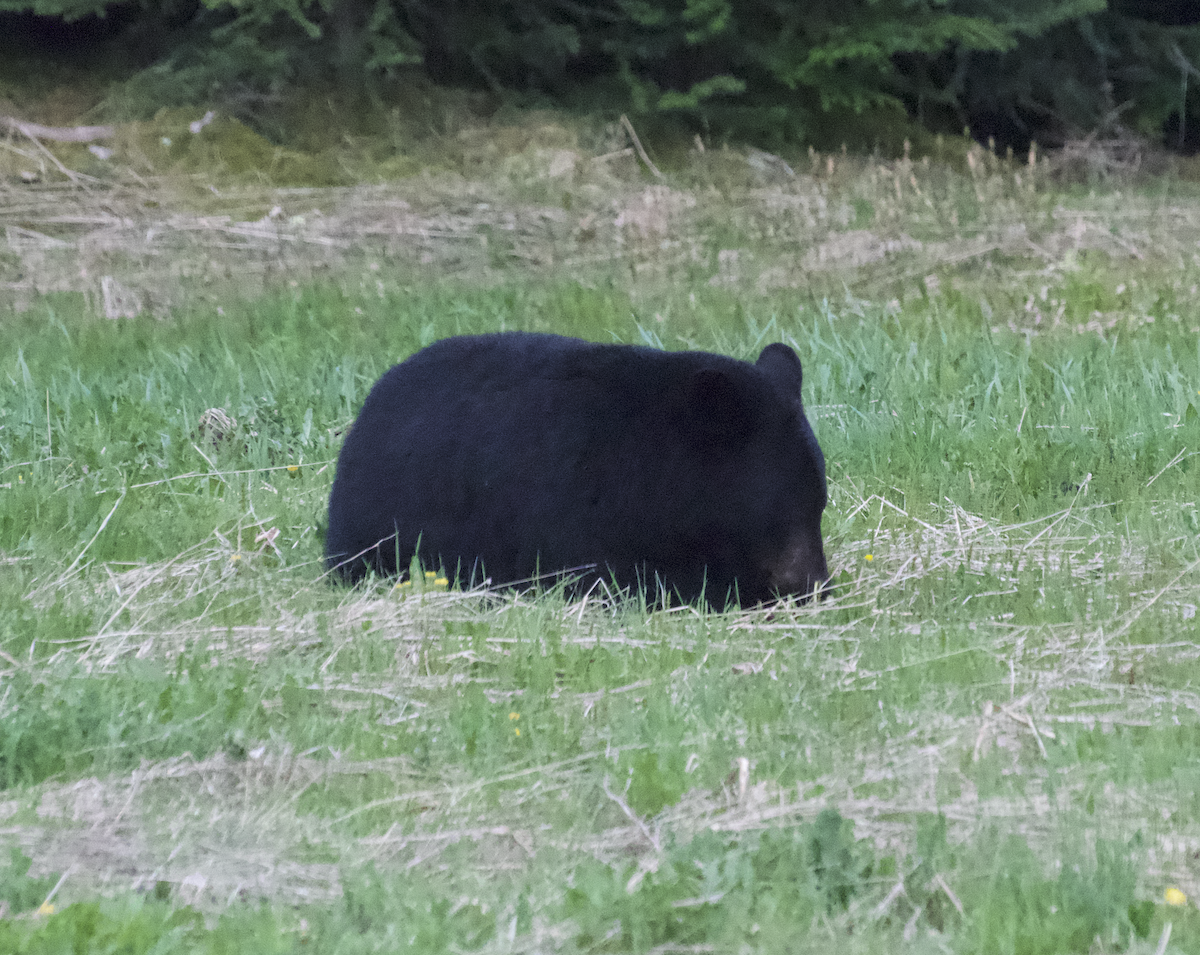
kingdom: Animalia
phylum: Chordata
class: Mammalia
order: Carnivora
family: Ursidae
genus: Ursus
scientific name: Ursus americanus
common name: American black bear
